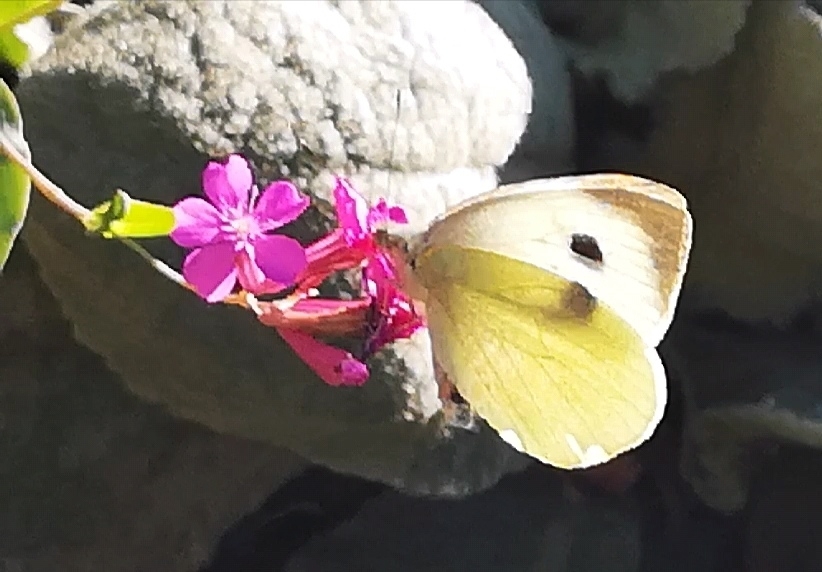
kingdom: Animalia
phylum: Arthropoda
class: Insecta
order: Lepidoptera
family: Pieridae
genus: Pieris
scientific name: Pieris brassicae
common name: Large white
